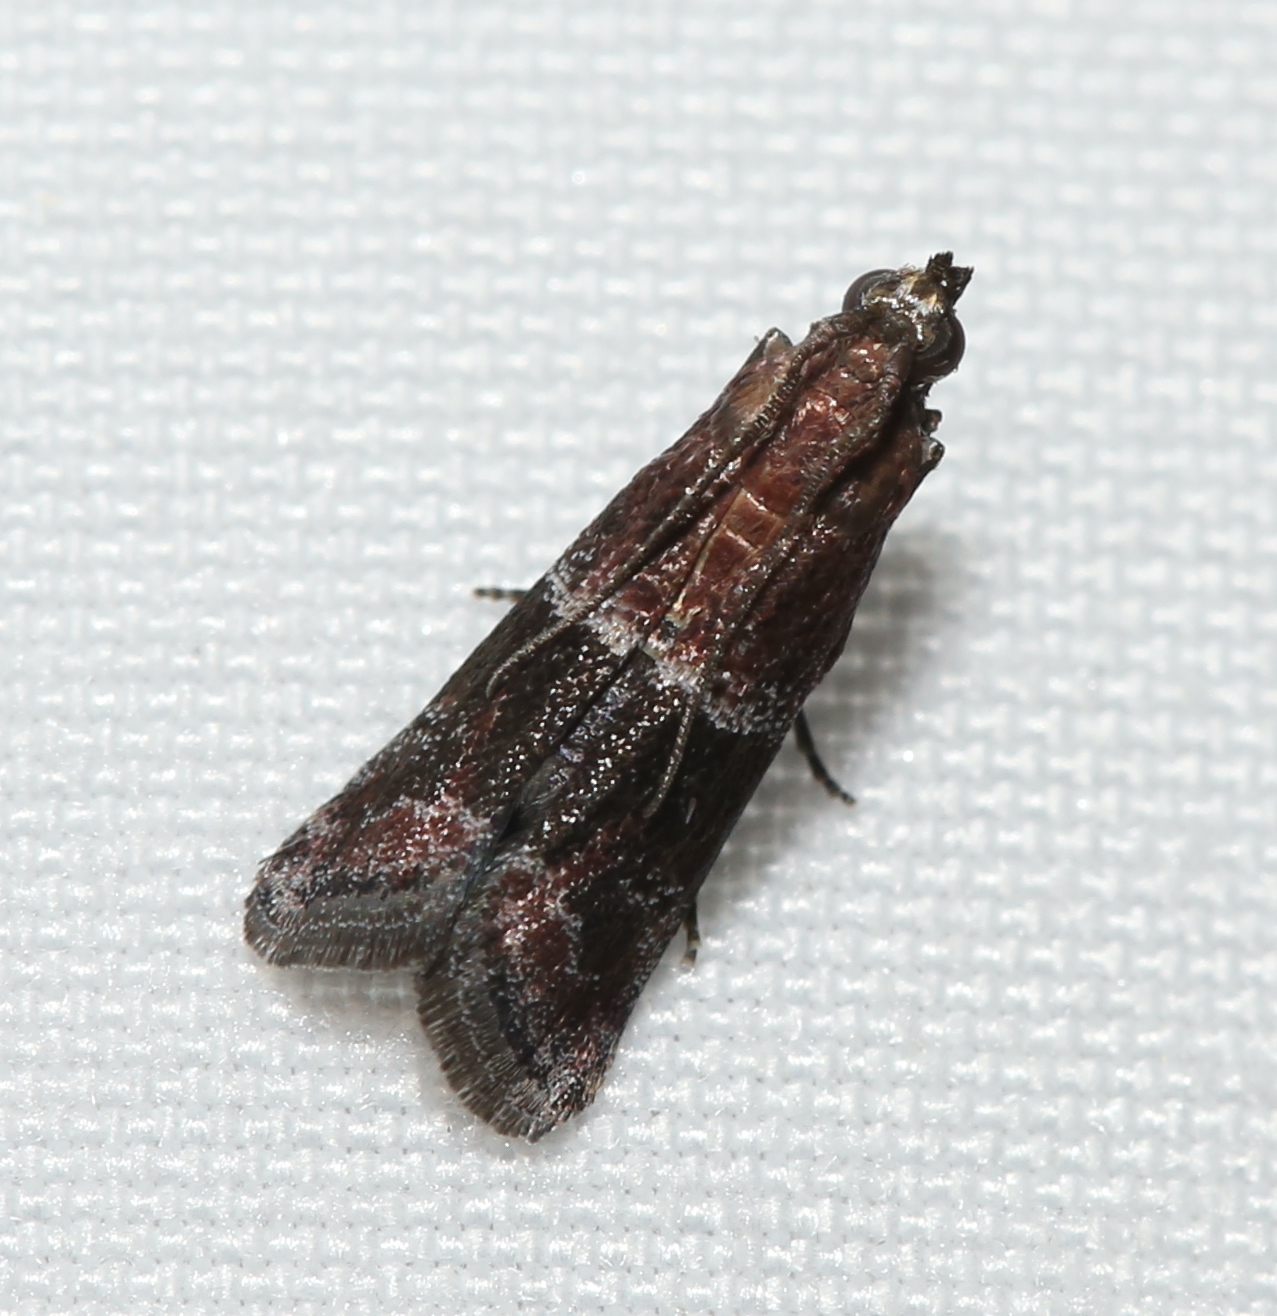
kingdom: Animalia
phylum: Arthropoda
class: Insecta
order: Lepidoptera
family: Pyralidae
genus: Moodna
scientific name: Moodna ostrinella
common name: Darker moodna moth
